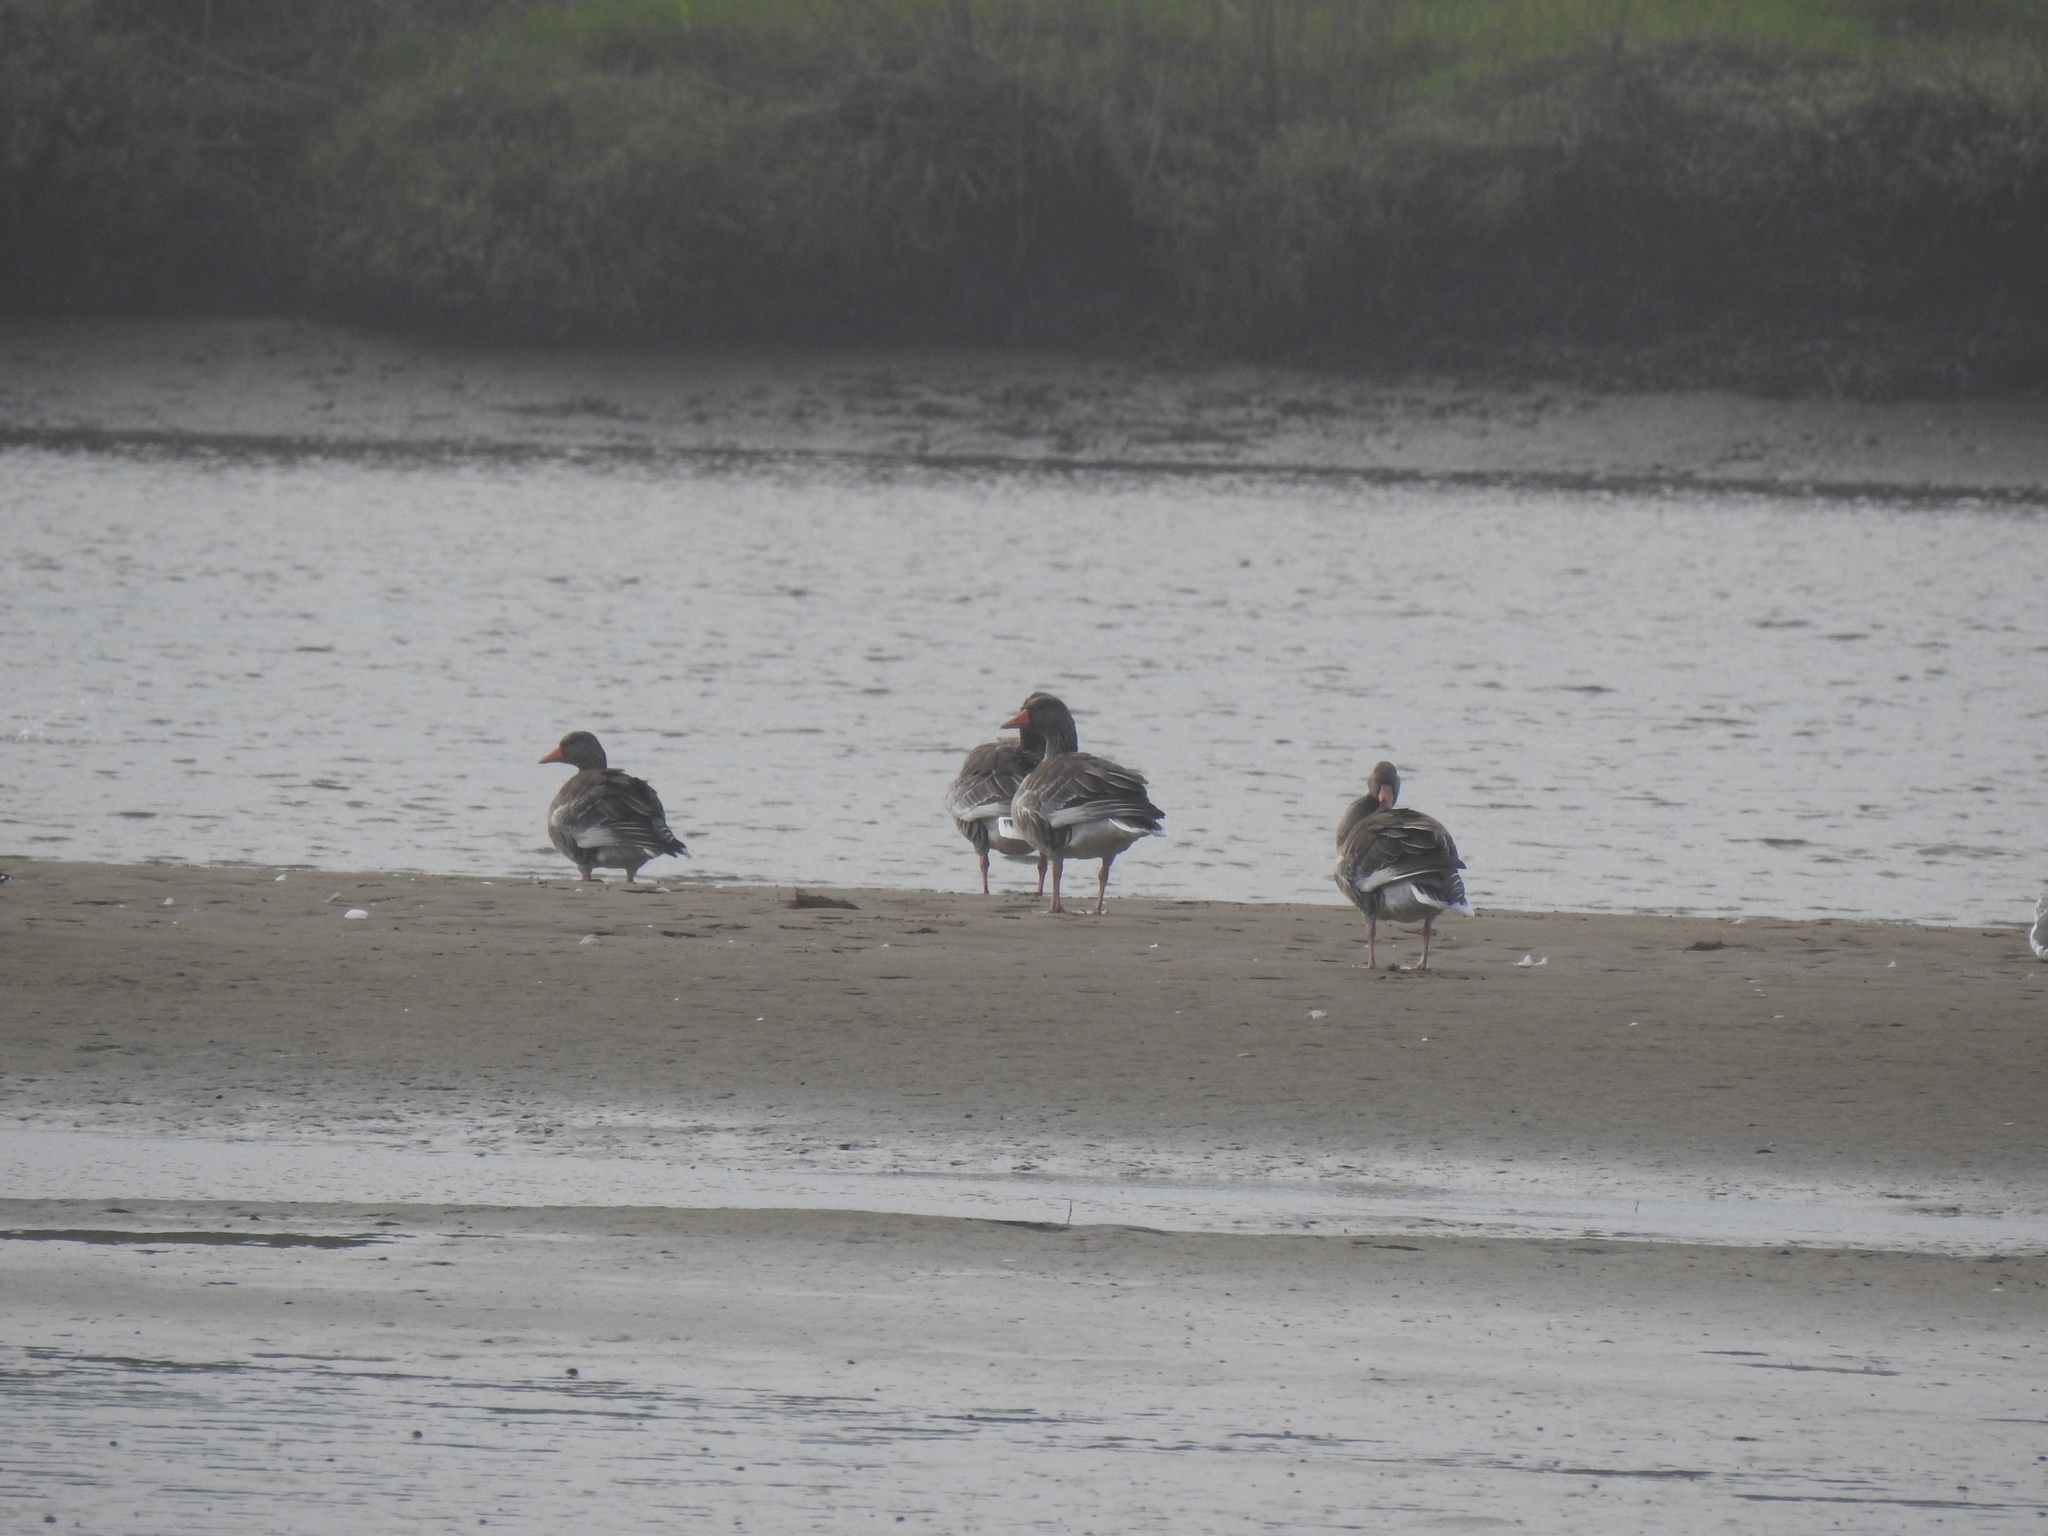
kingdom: Animalia
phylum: Chordata
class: Aves
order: Anseriformes
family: Anatidae
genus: Anser
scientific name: Anser anser
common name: Greylag goose
